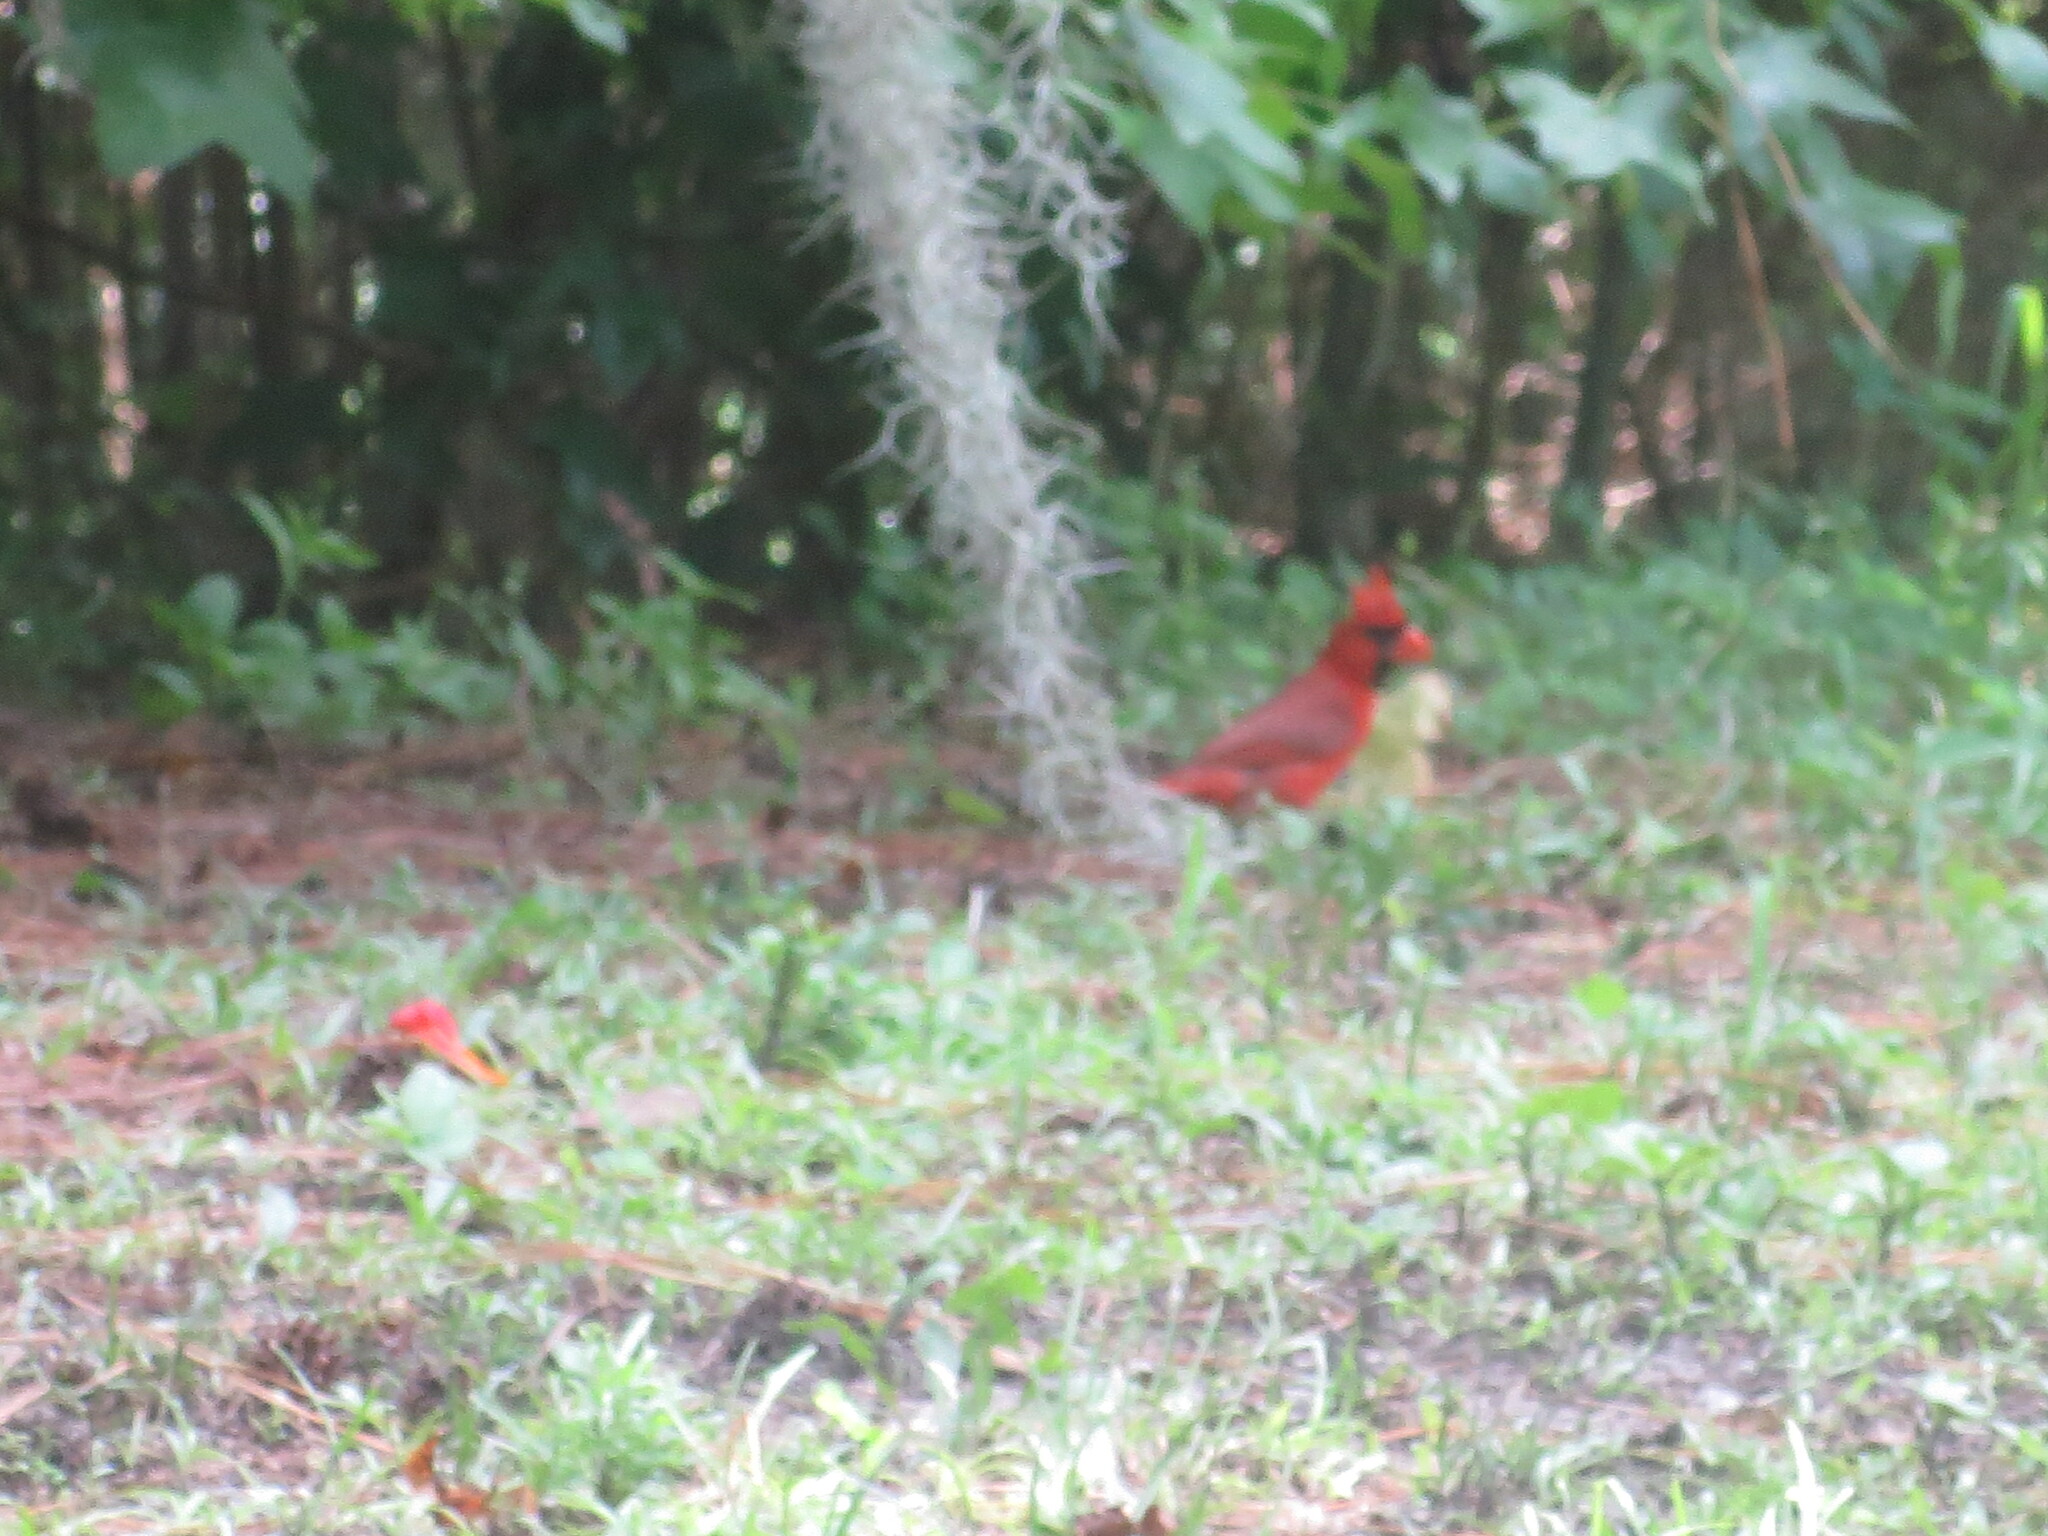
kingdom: Animalia
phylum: Chordata
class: Aves
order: Passeriformes
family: Cardinalidae
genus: Cardinalis
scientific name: Cardinalis cardinalis
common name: Northern cardinal
